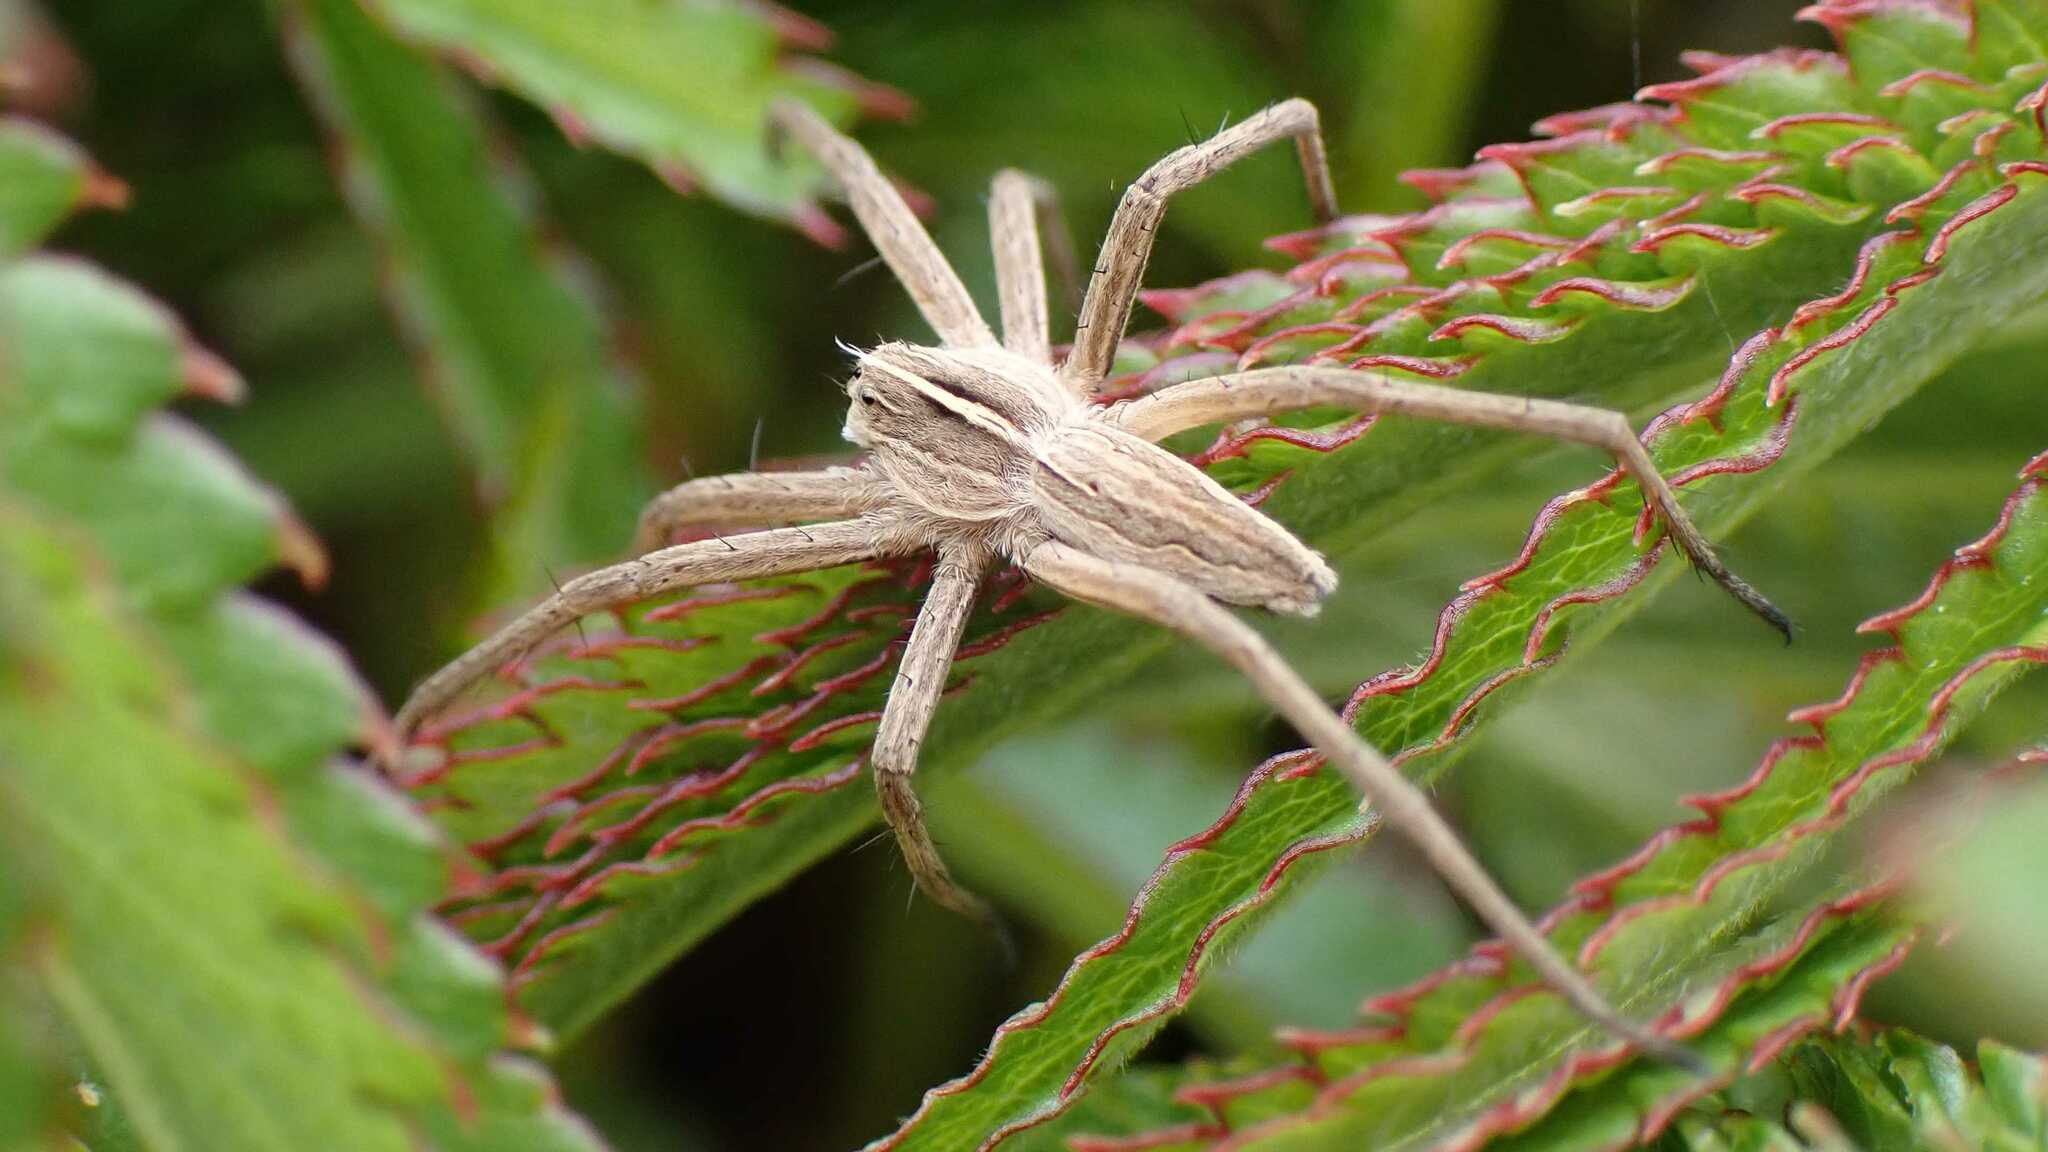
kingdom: Animalia
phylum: Arthropoda
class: Arachnida
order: Araneae
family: Pisauridae
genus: Pisaura
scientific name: Pisaura mirabilis
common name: Tent spider
